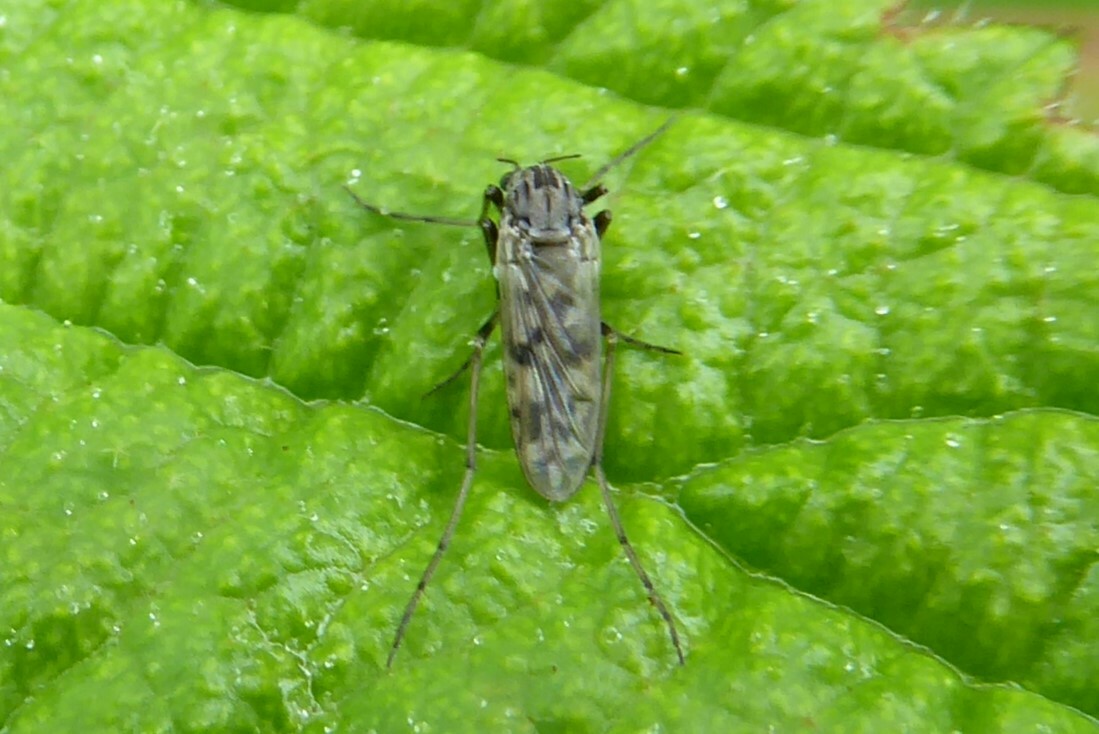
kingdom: Animalia
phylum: Arthropoda
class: Insecta
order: Diptera
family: Chironomidae
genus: Gressittius
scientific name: Gressittius antarcticus
